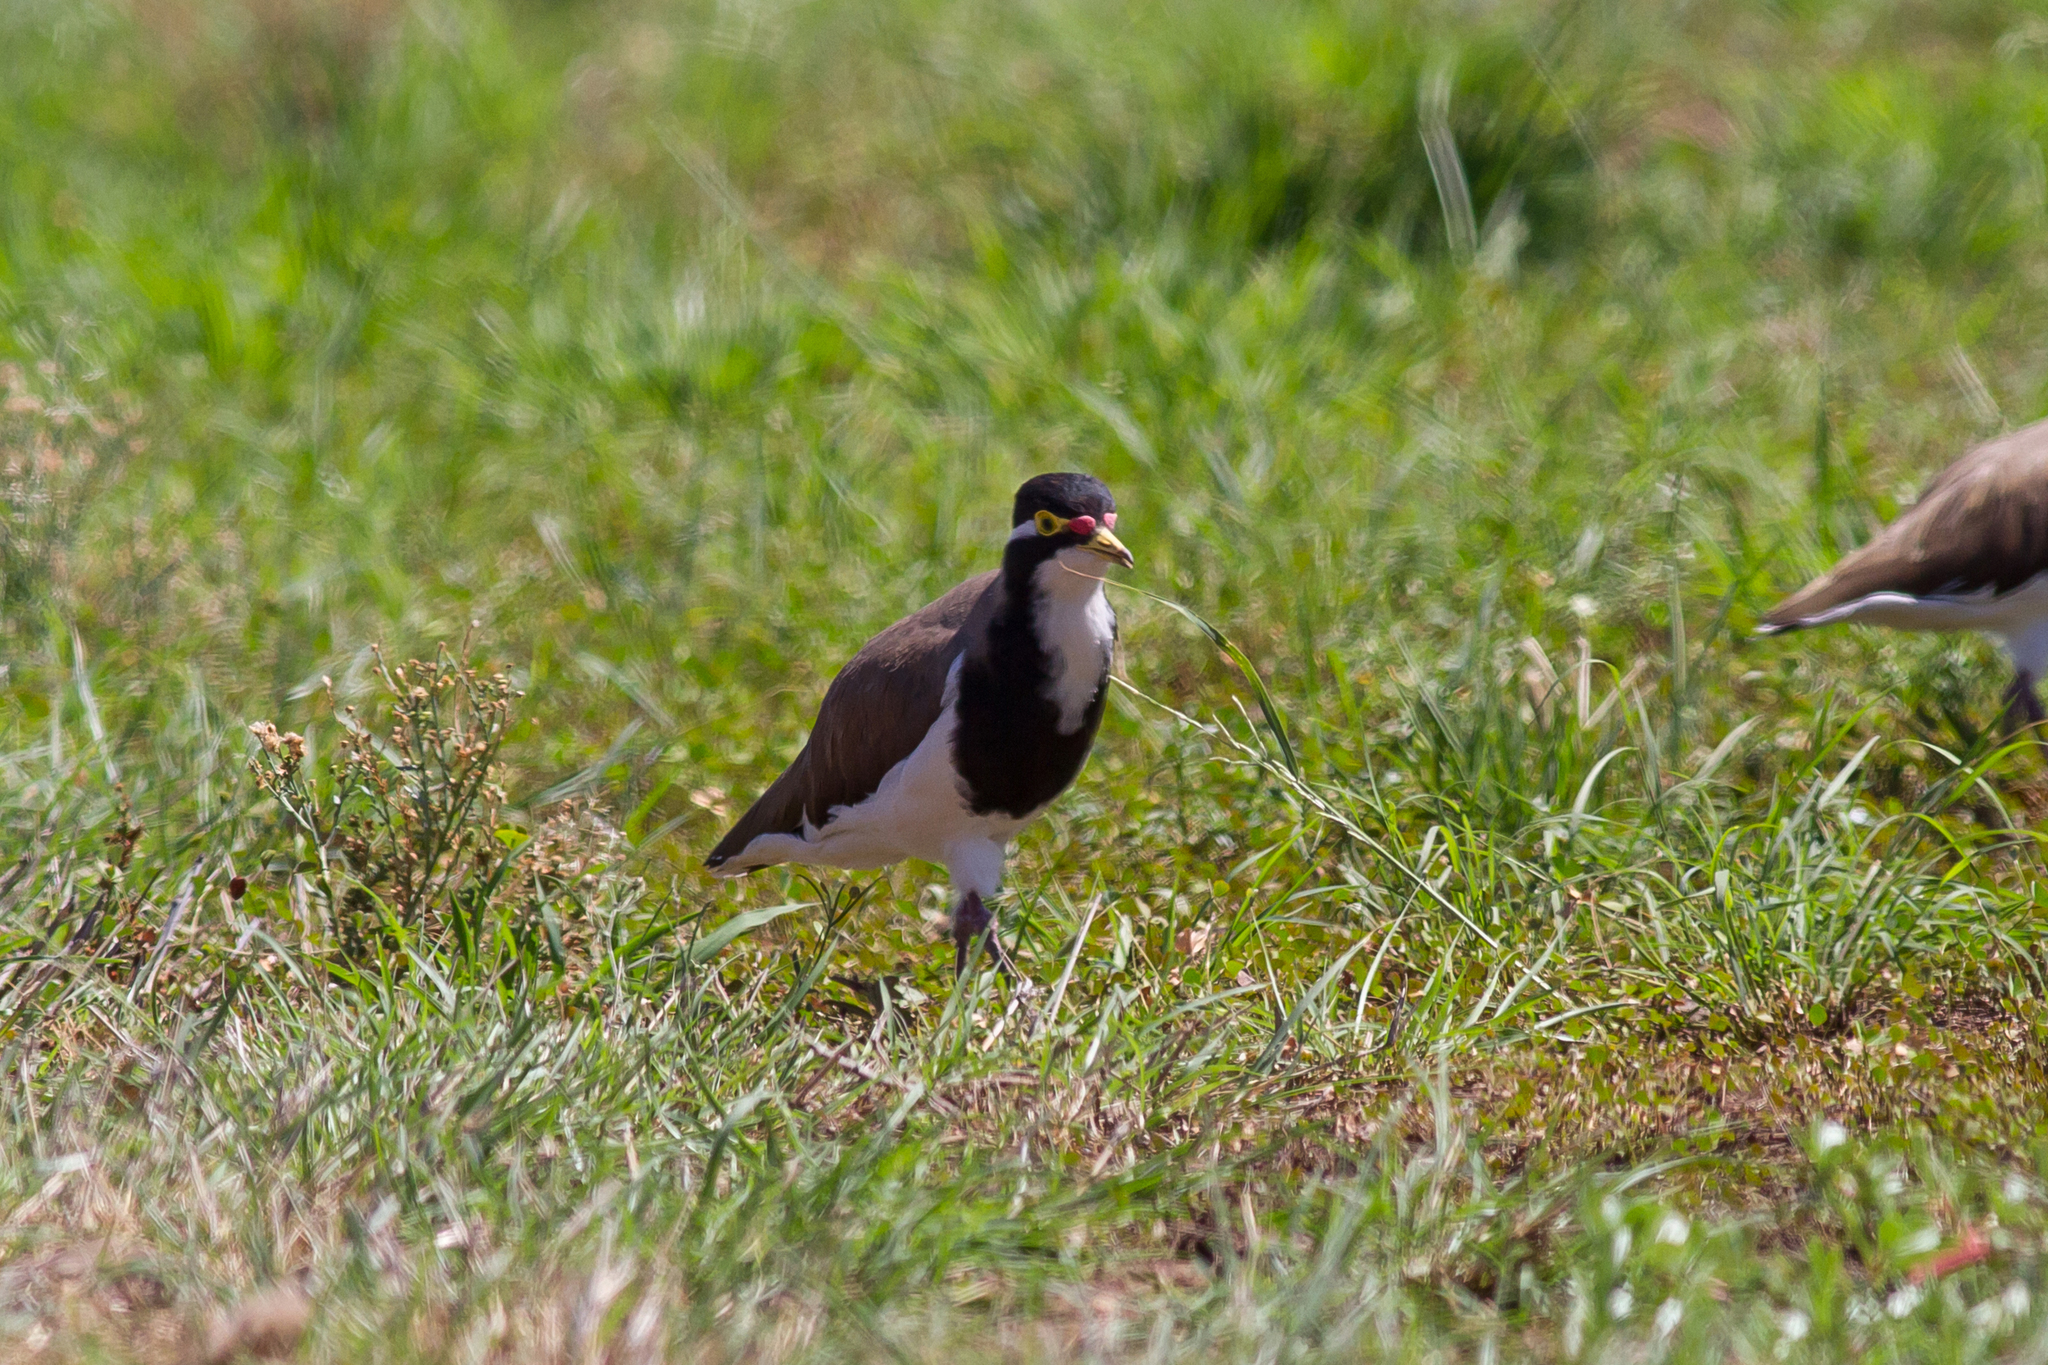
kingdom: Animalia
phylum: Chordata
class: Aves
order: Charadriiformes
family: Charadriidae
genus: Vanellus
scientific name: Vanellus tricolor
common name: Banded lapwing
